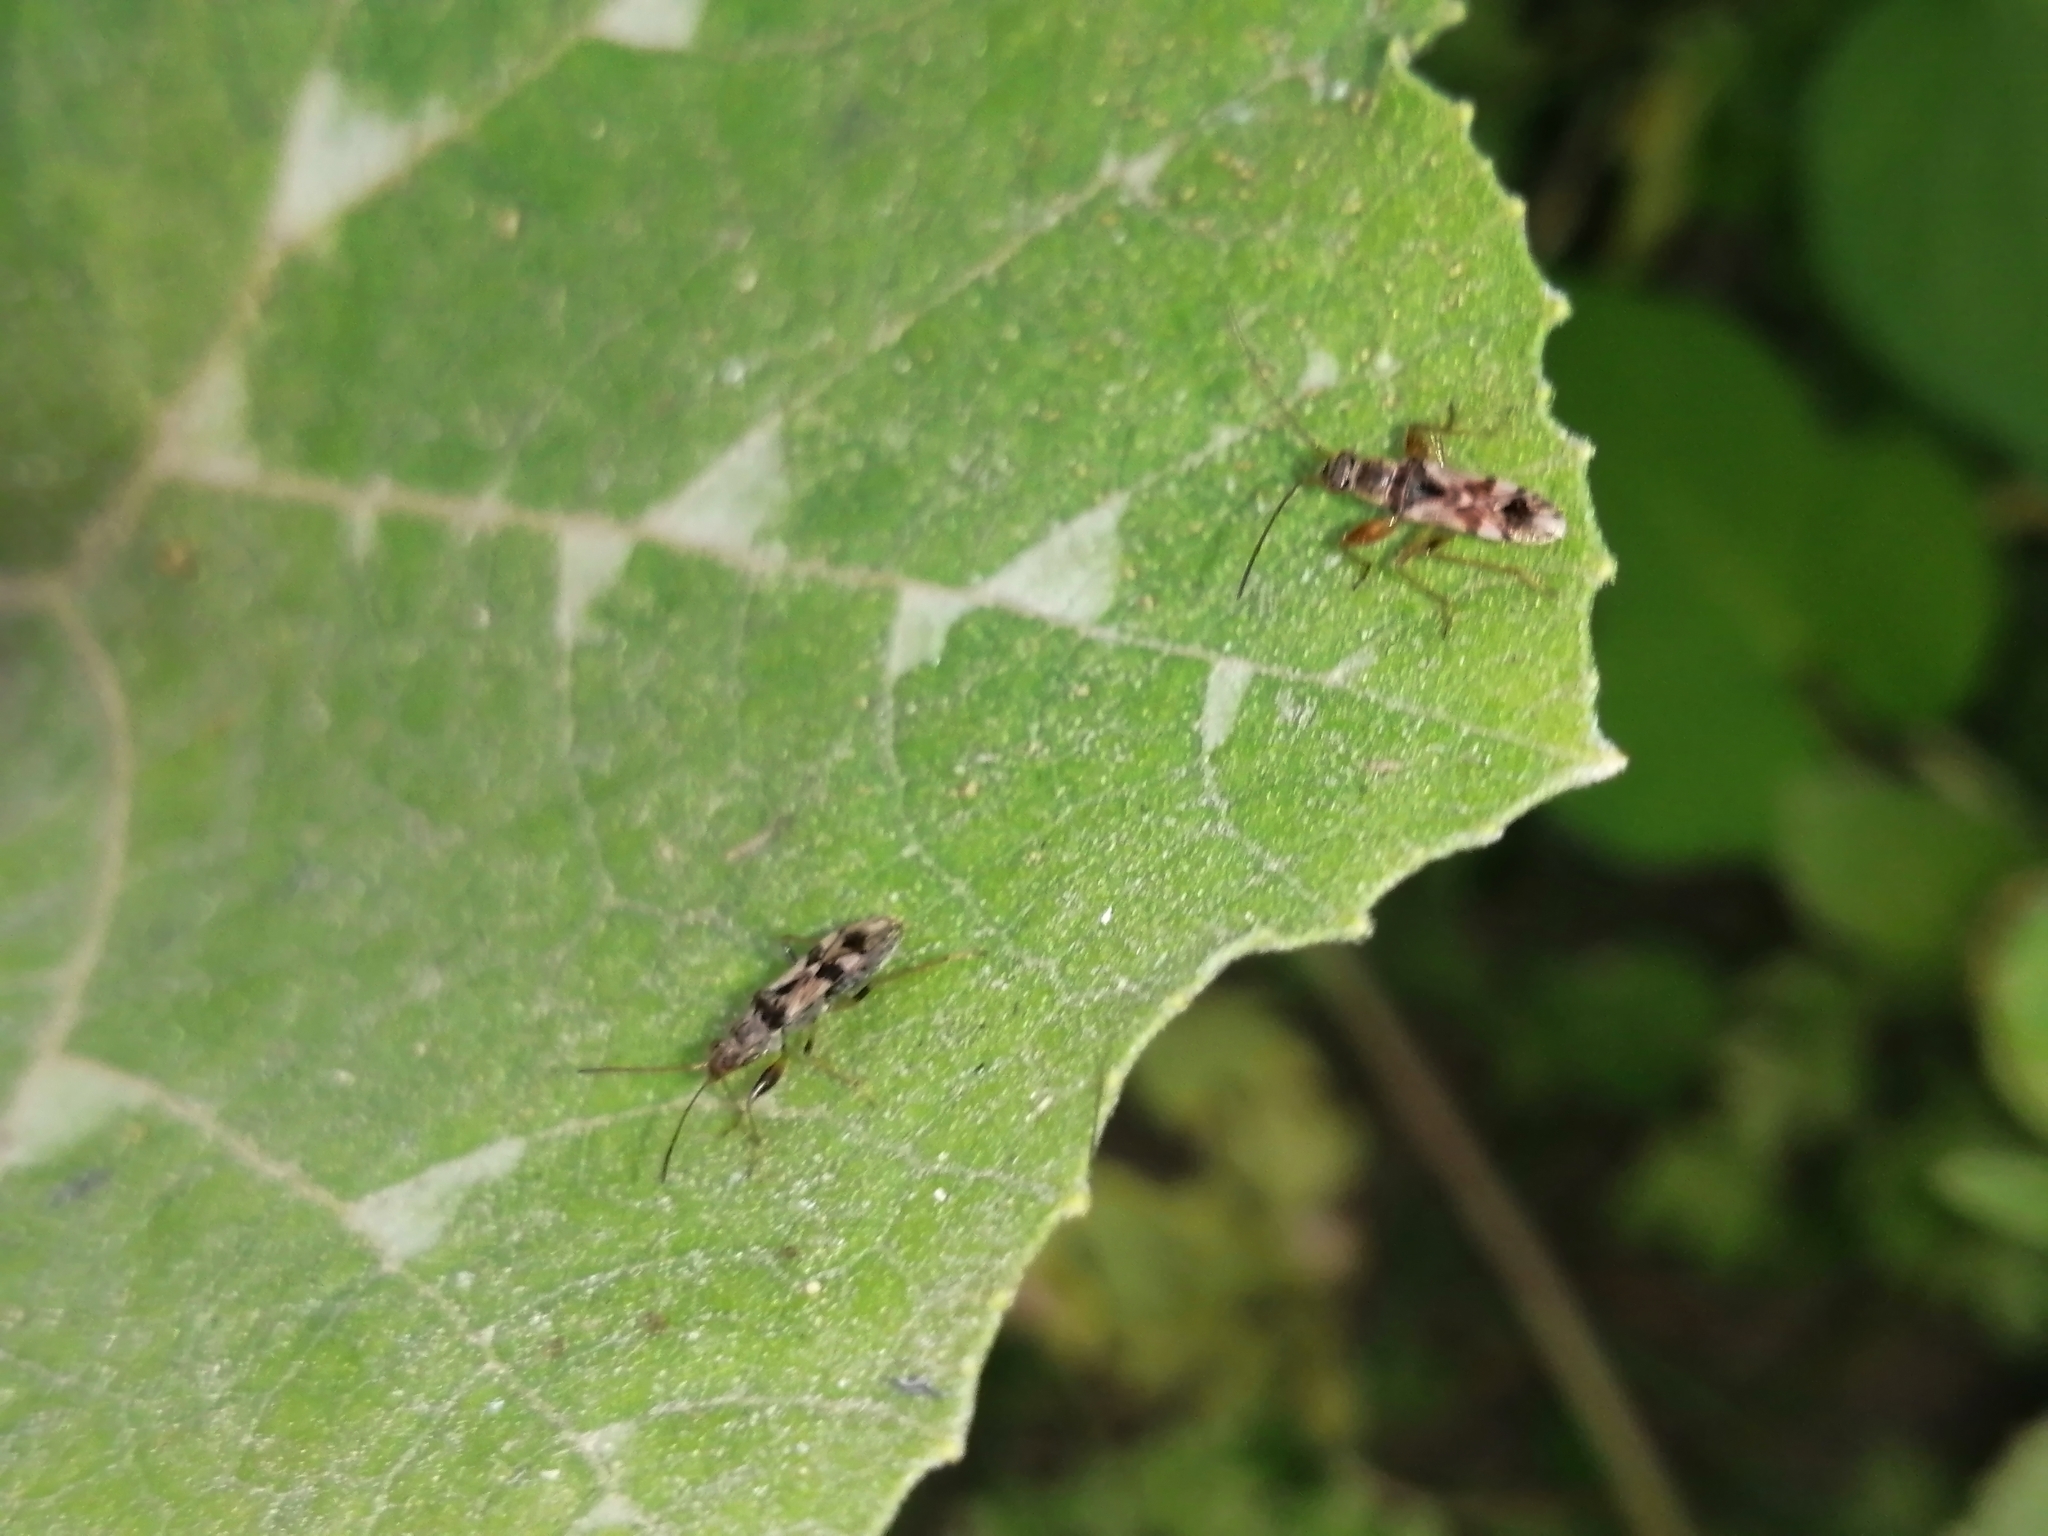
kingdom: Animalia
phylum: Arthropoda
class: Insecta
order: Hemiptera
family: Rhyparochromidae
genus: Neopamera
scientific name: Neopamera bilobata
